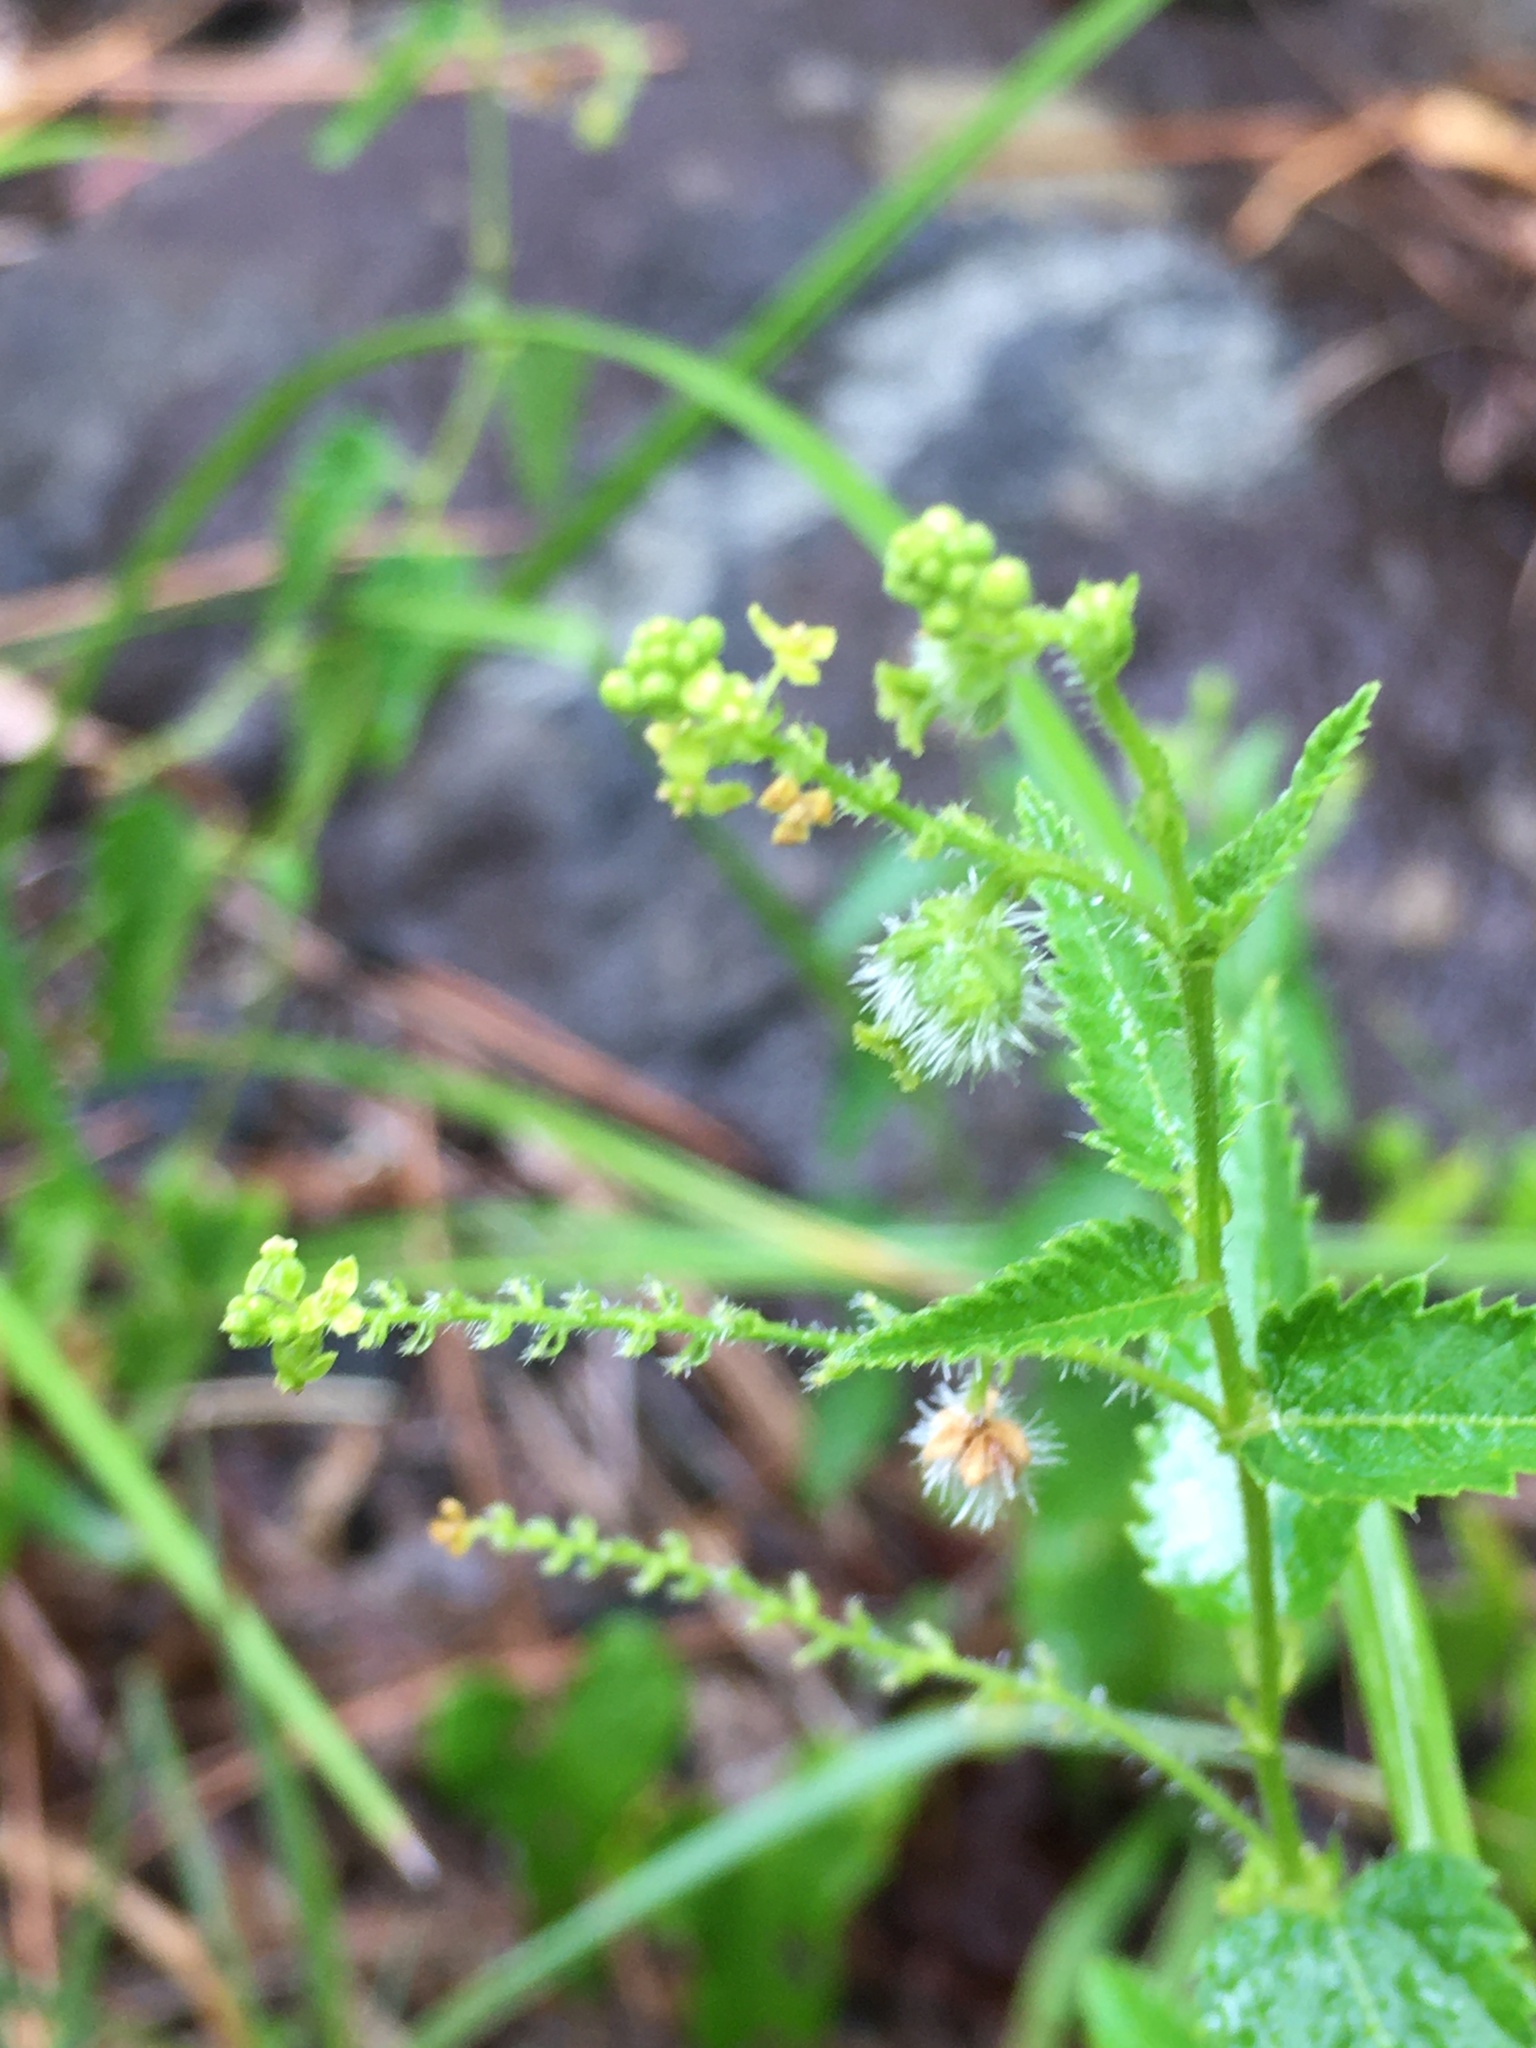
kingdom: Plantae
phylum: Tracheophyta
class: Magnoliopsida
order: Malpighiales
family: Euphorbiaceae
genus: Tragia
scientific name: Tragia urticifolia
